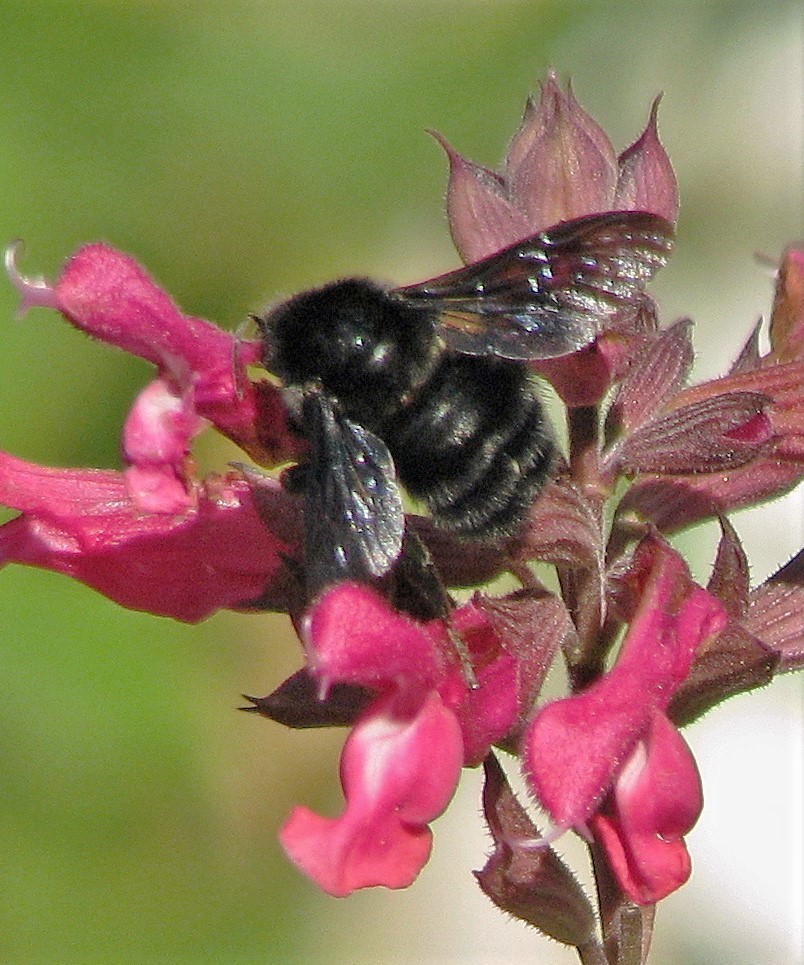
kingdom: Animalia
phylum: Arthropoda
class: Insecta
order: Hymenoptera
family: Apidae
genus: Bombus
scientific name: Bombus pauloensis
